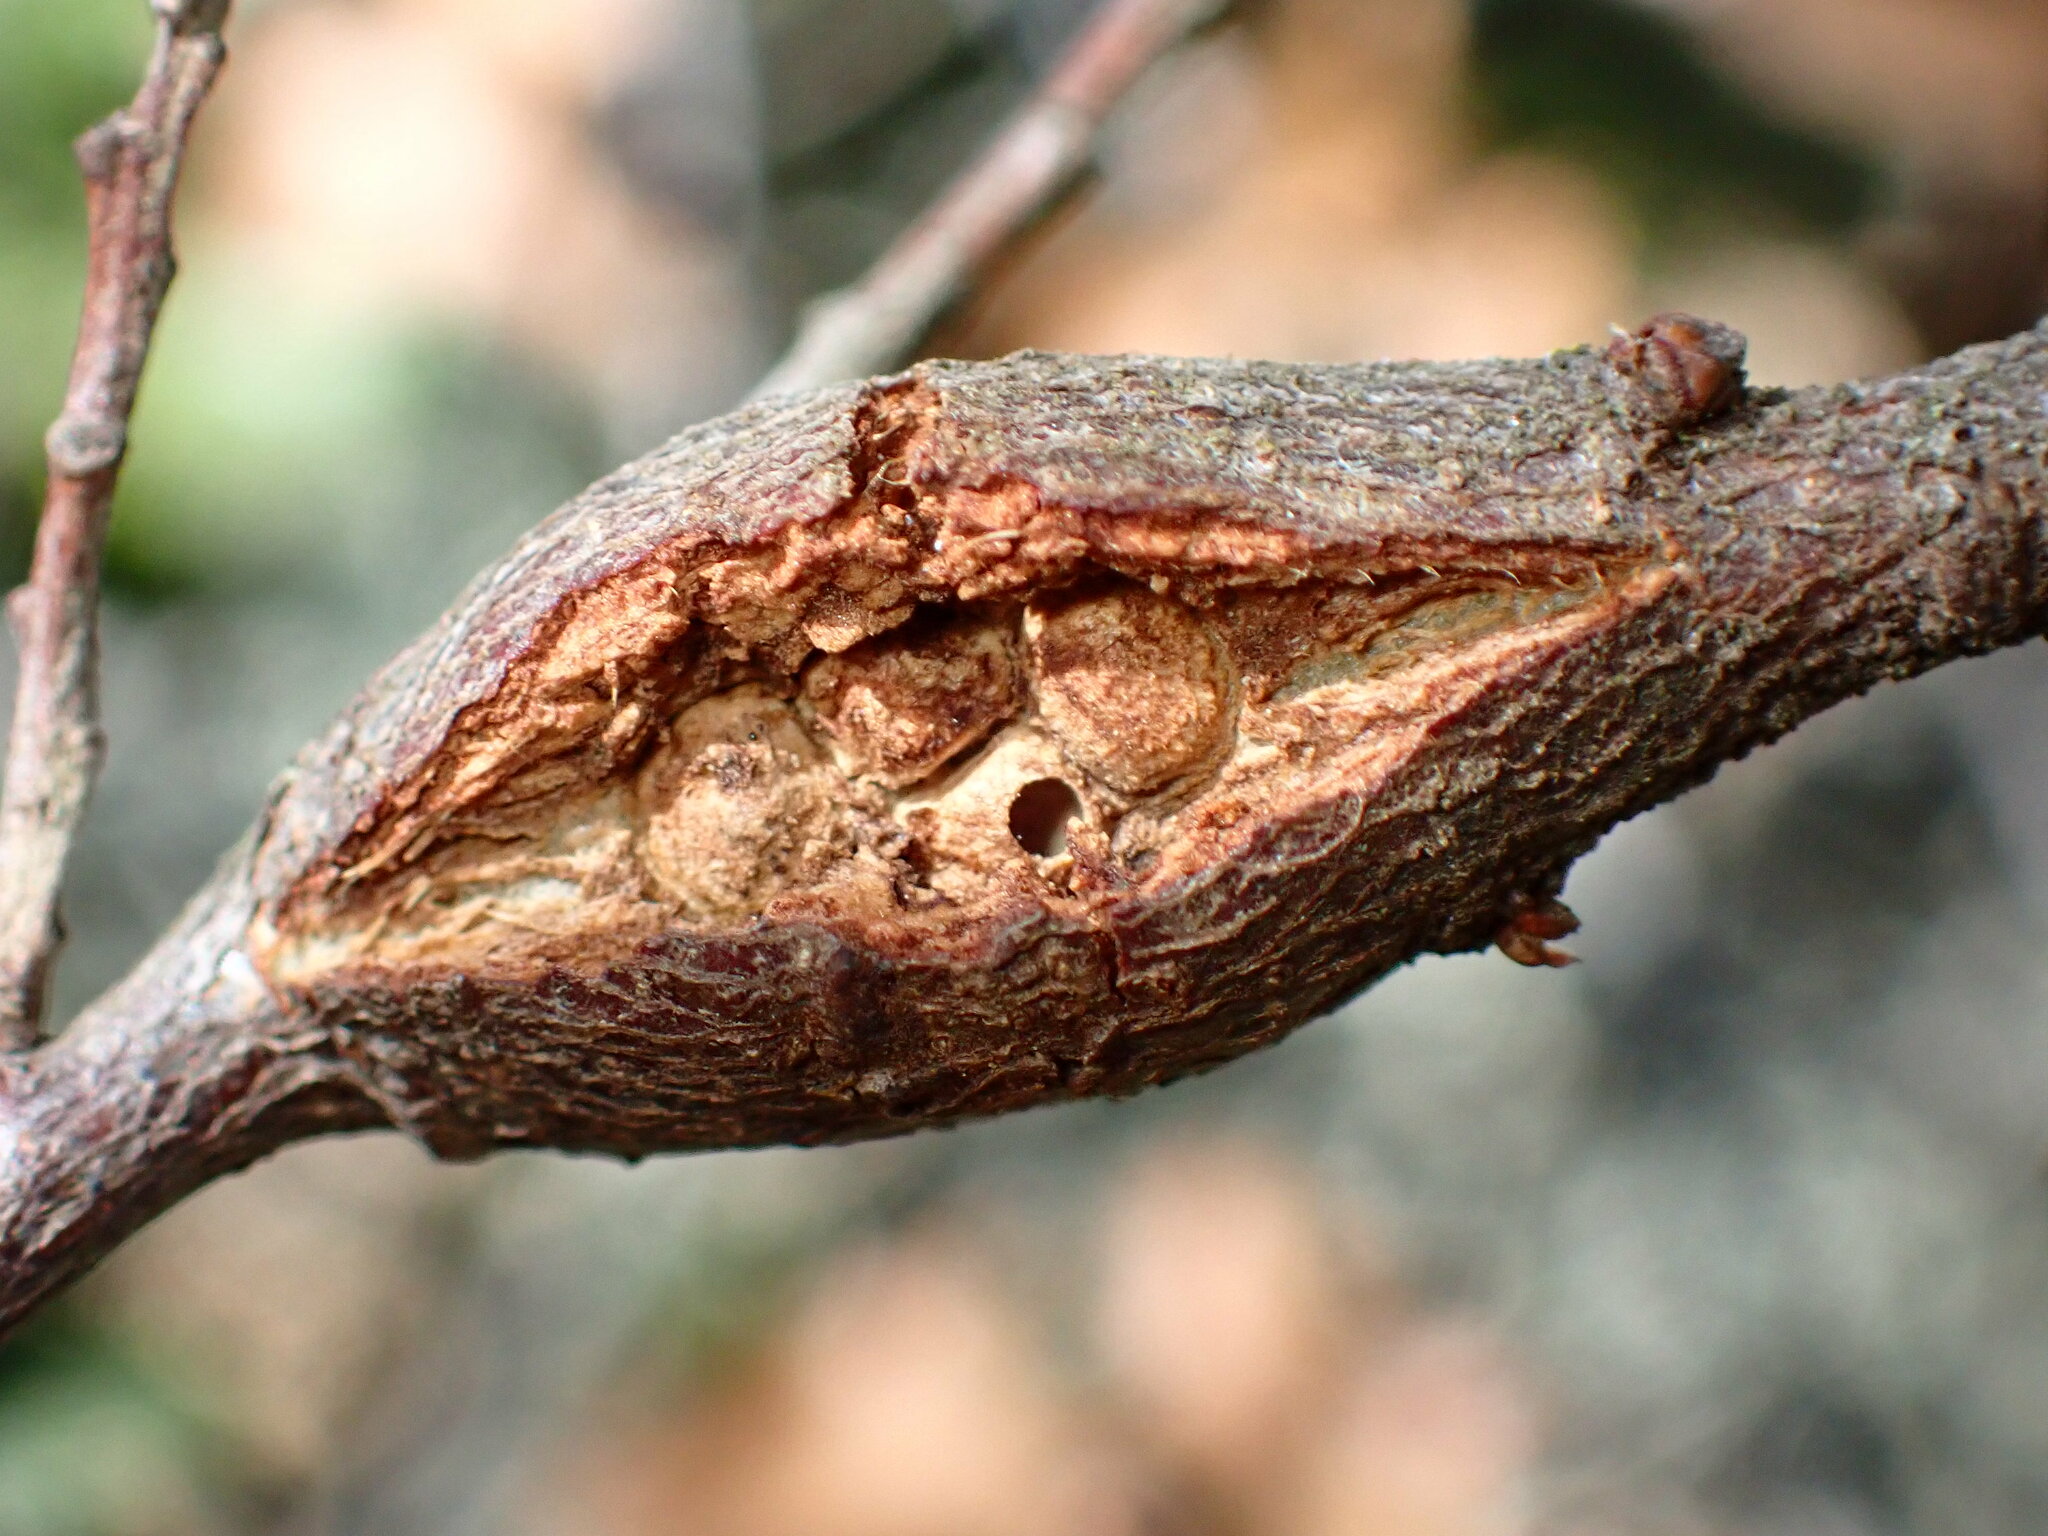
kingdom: Animalia
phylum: Arthropoda
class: Insecta
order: Hymenoptera
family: Cynipidae
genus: Dryocosmus
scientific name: Dryocosmus
